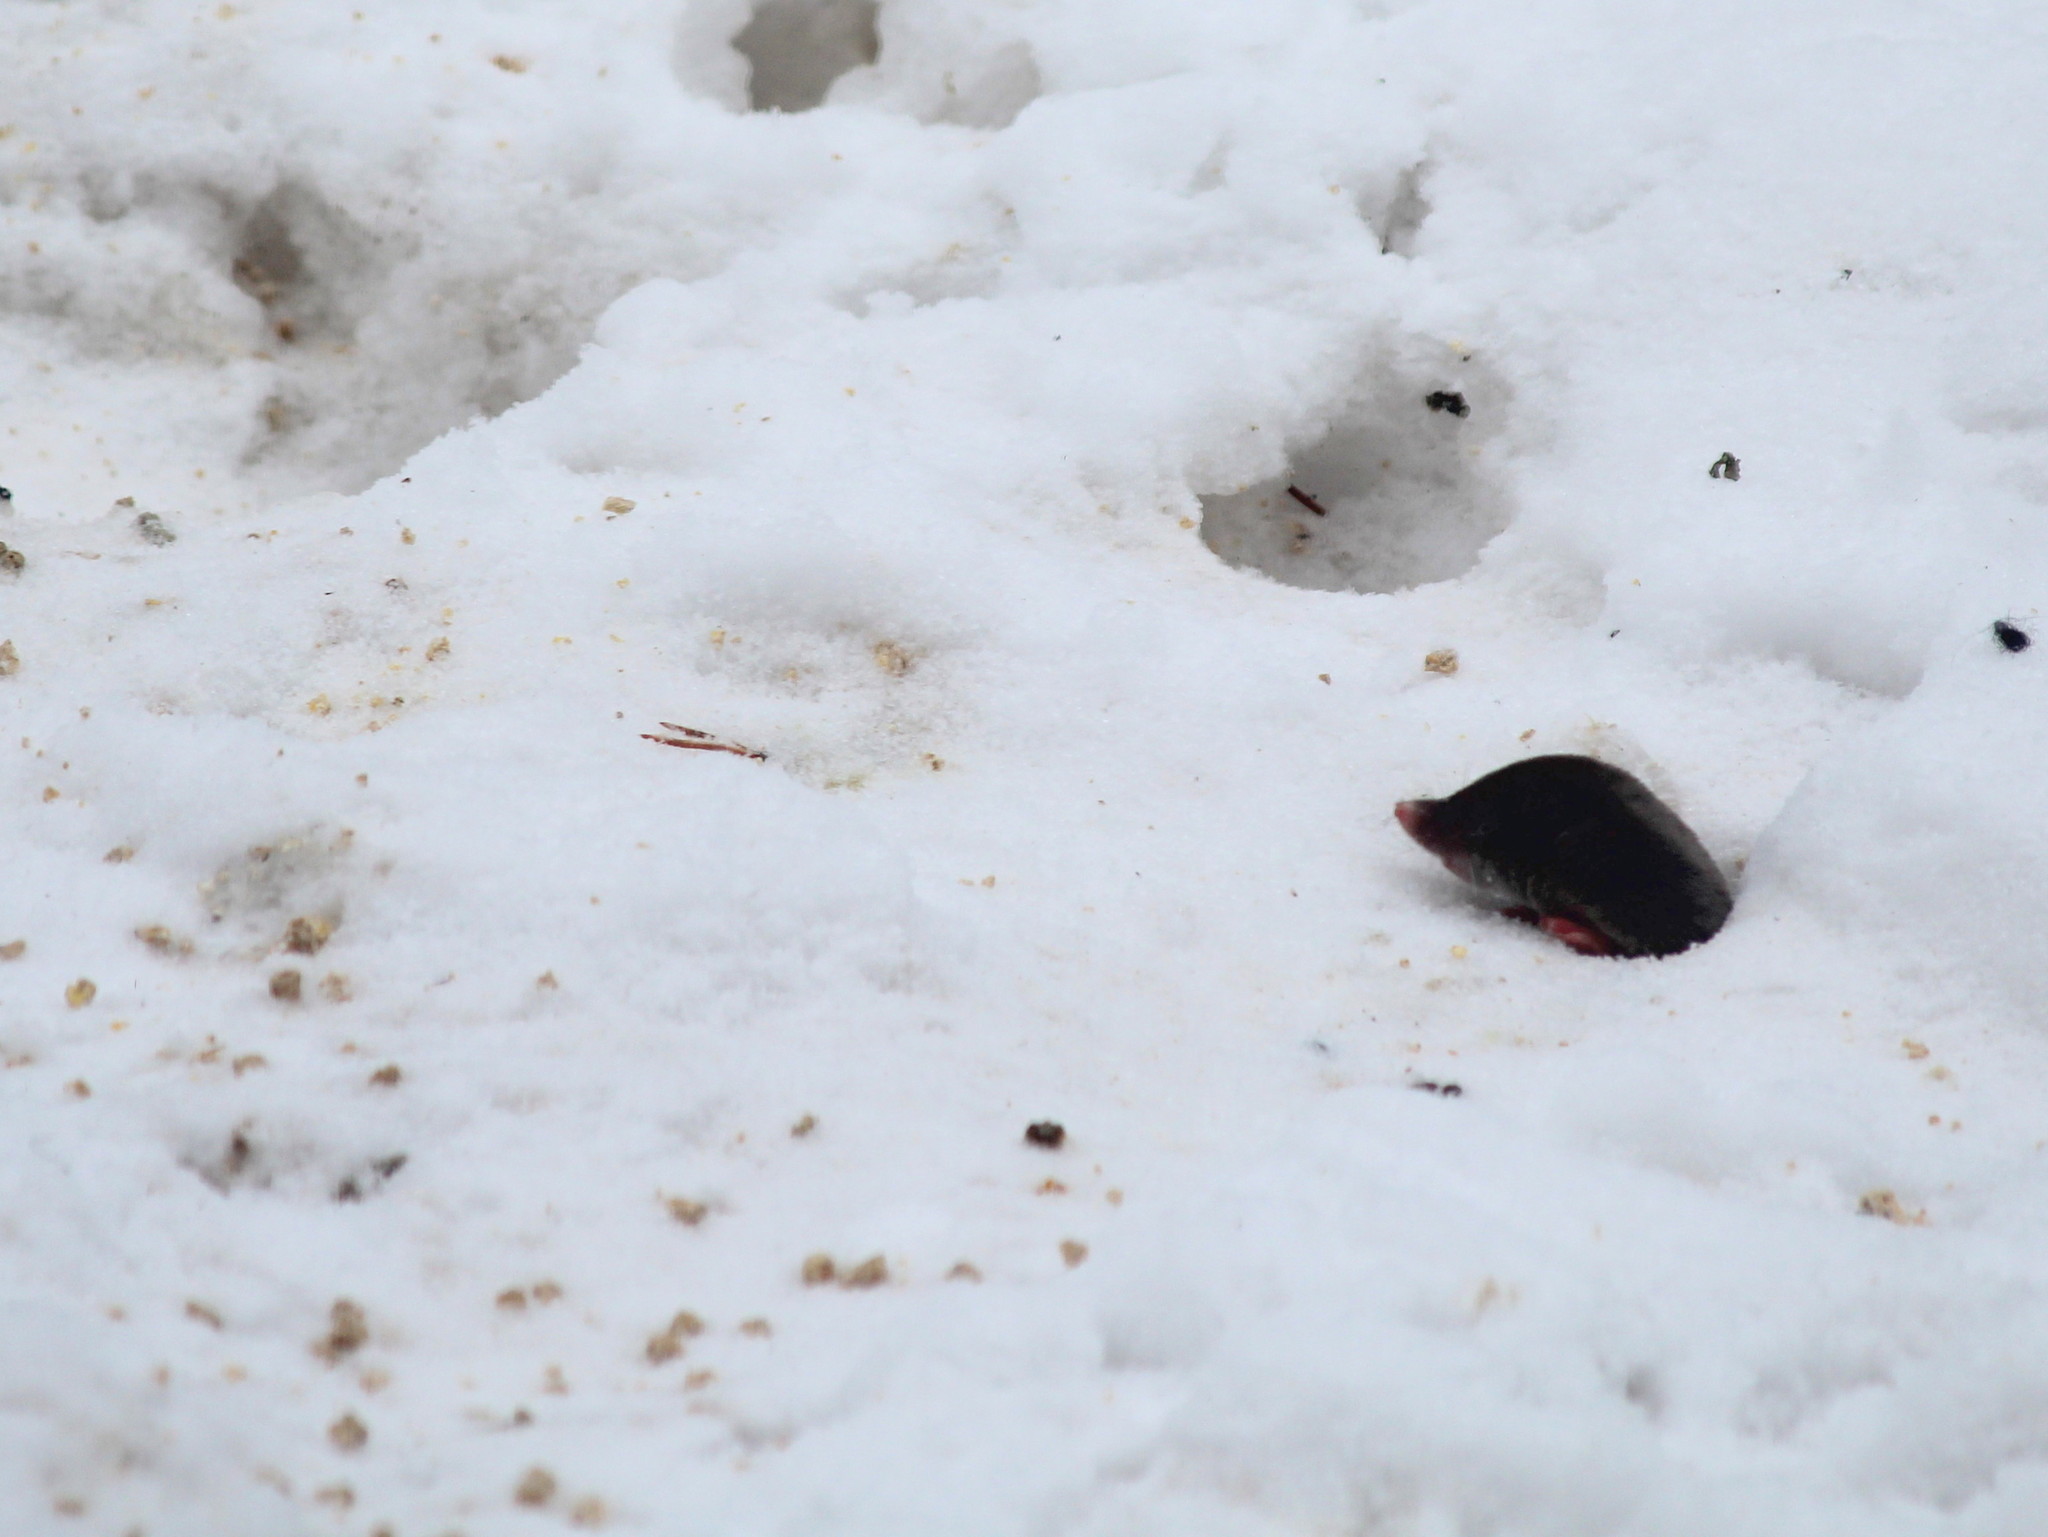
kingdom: Animalia
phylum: Chordata
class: Mammalia
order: Soricomorpha
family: Soricidae
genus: Blarina
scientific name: Blarina brevicauda
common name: Northern short-tailed shrew
